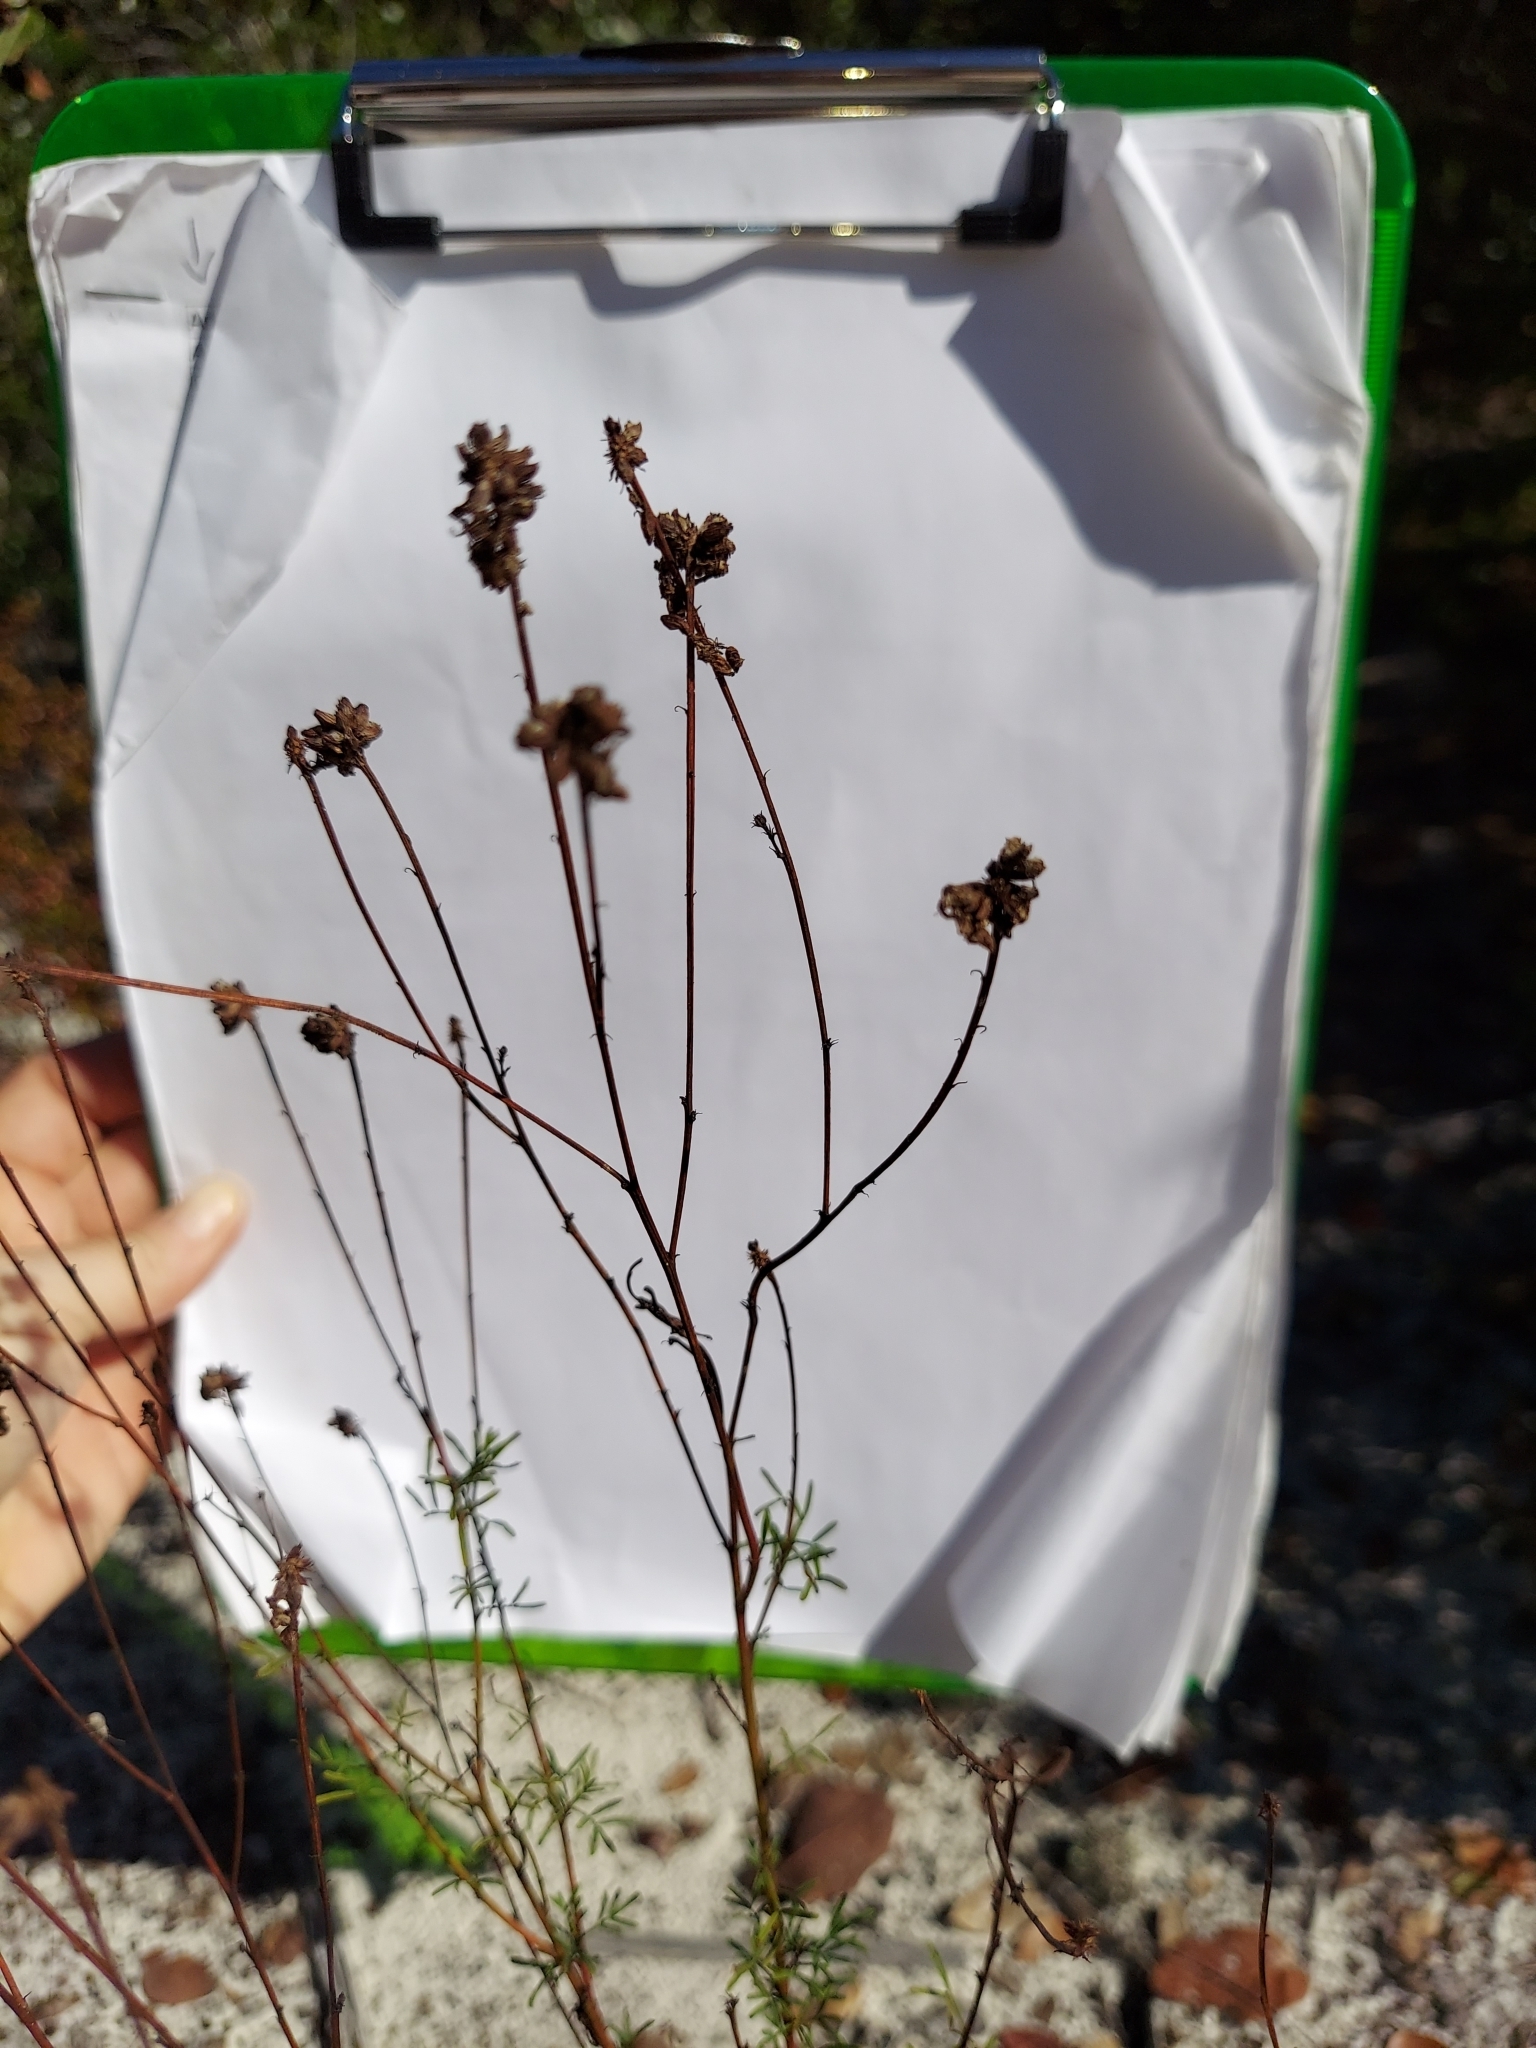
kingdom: Plantae
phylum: Tracheophyta
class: Magnoliopsida
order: Fabales
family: Fabaceae
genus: Dalea
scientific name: Dalea pinnata
